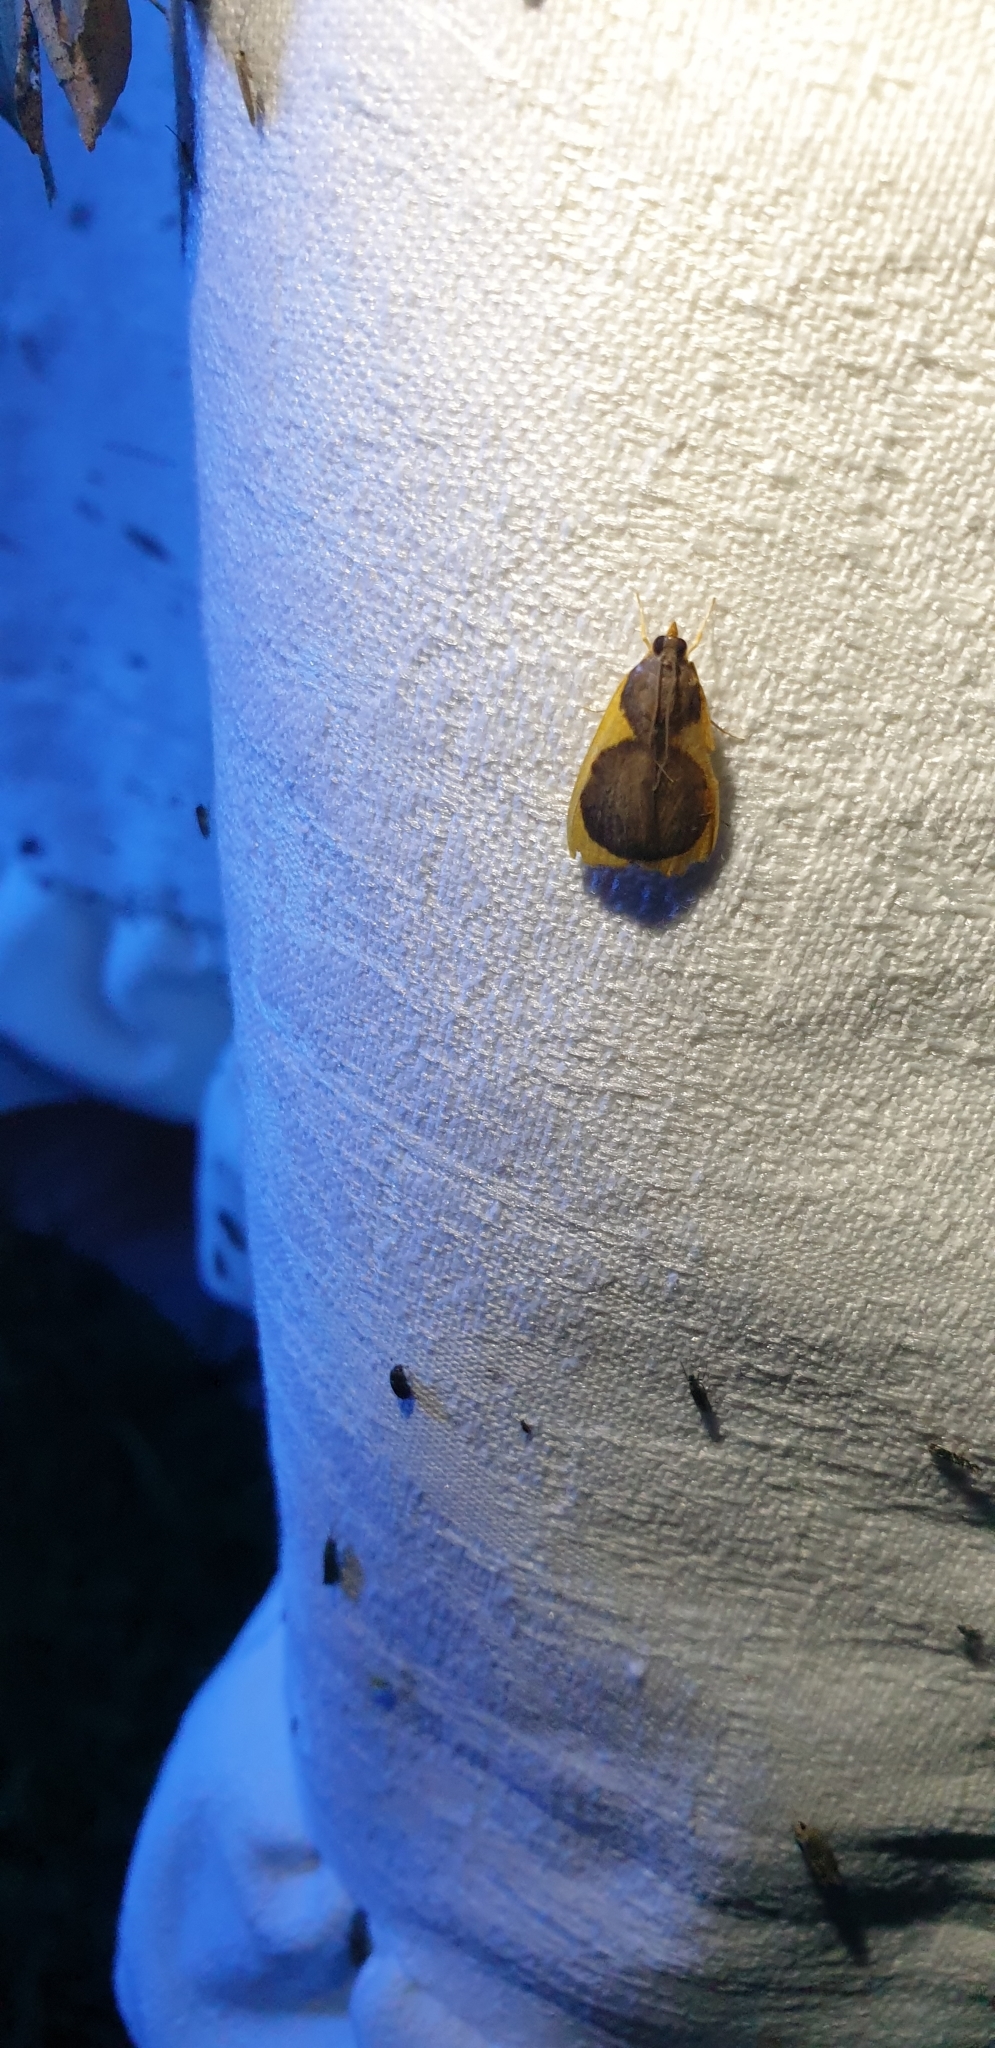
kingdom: Animalia
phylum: Arthropoda
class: Insecta
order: Lepidoptera
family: Crambidae
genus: Prooedema
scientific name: Prooedema inscisalis
